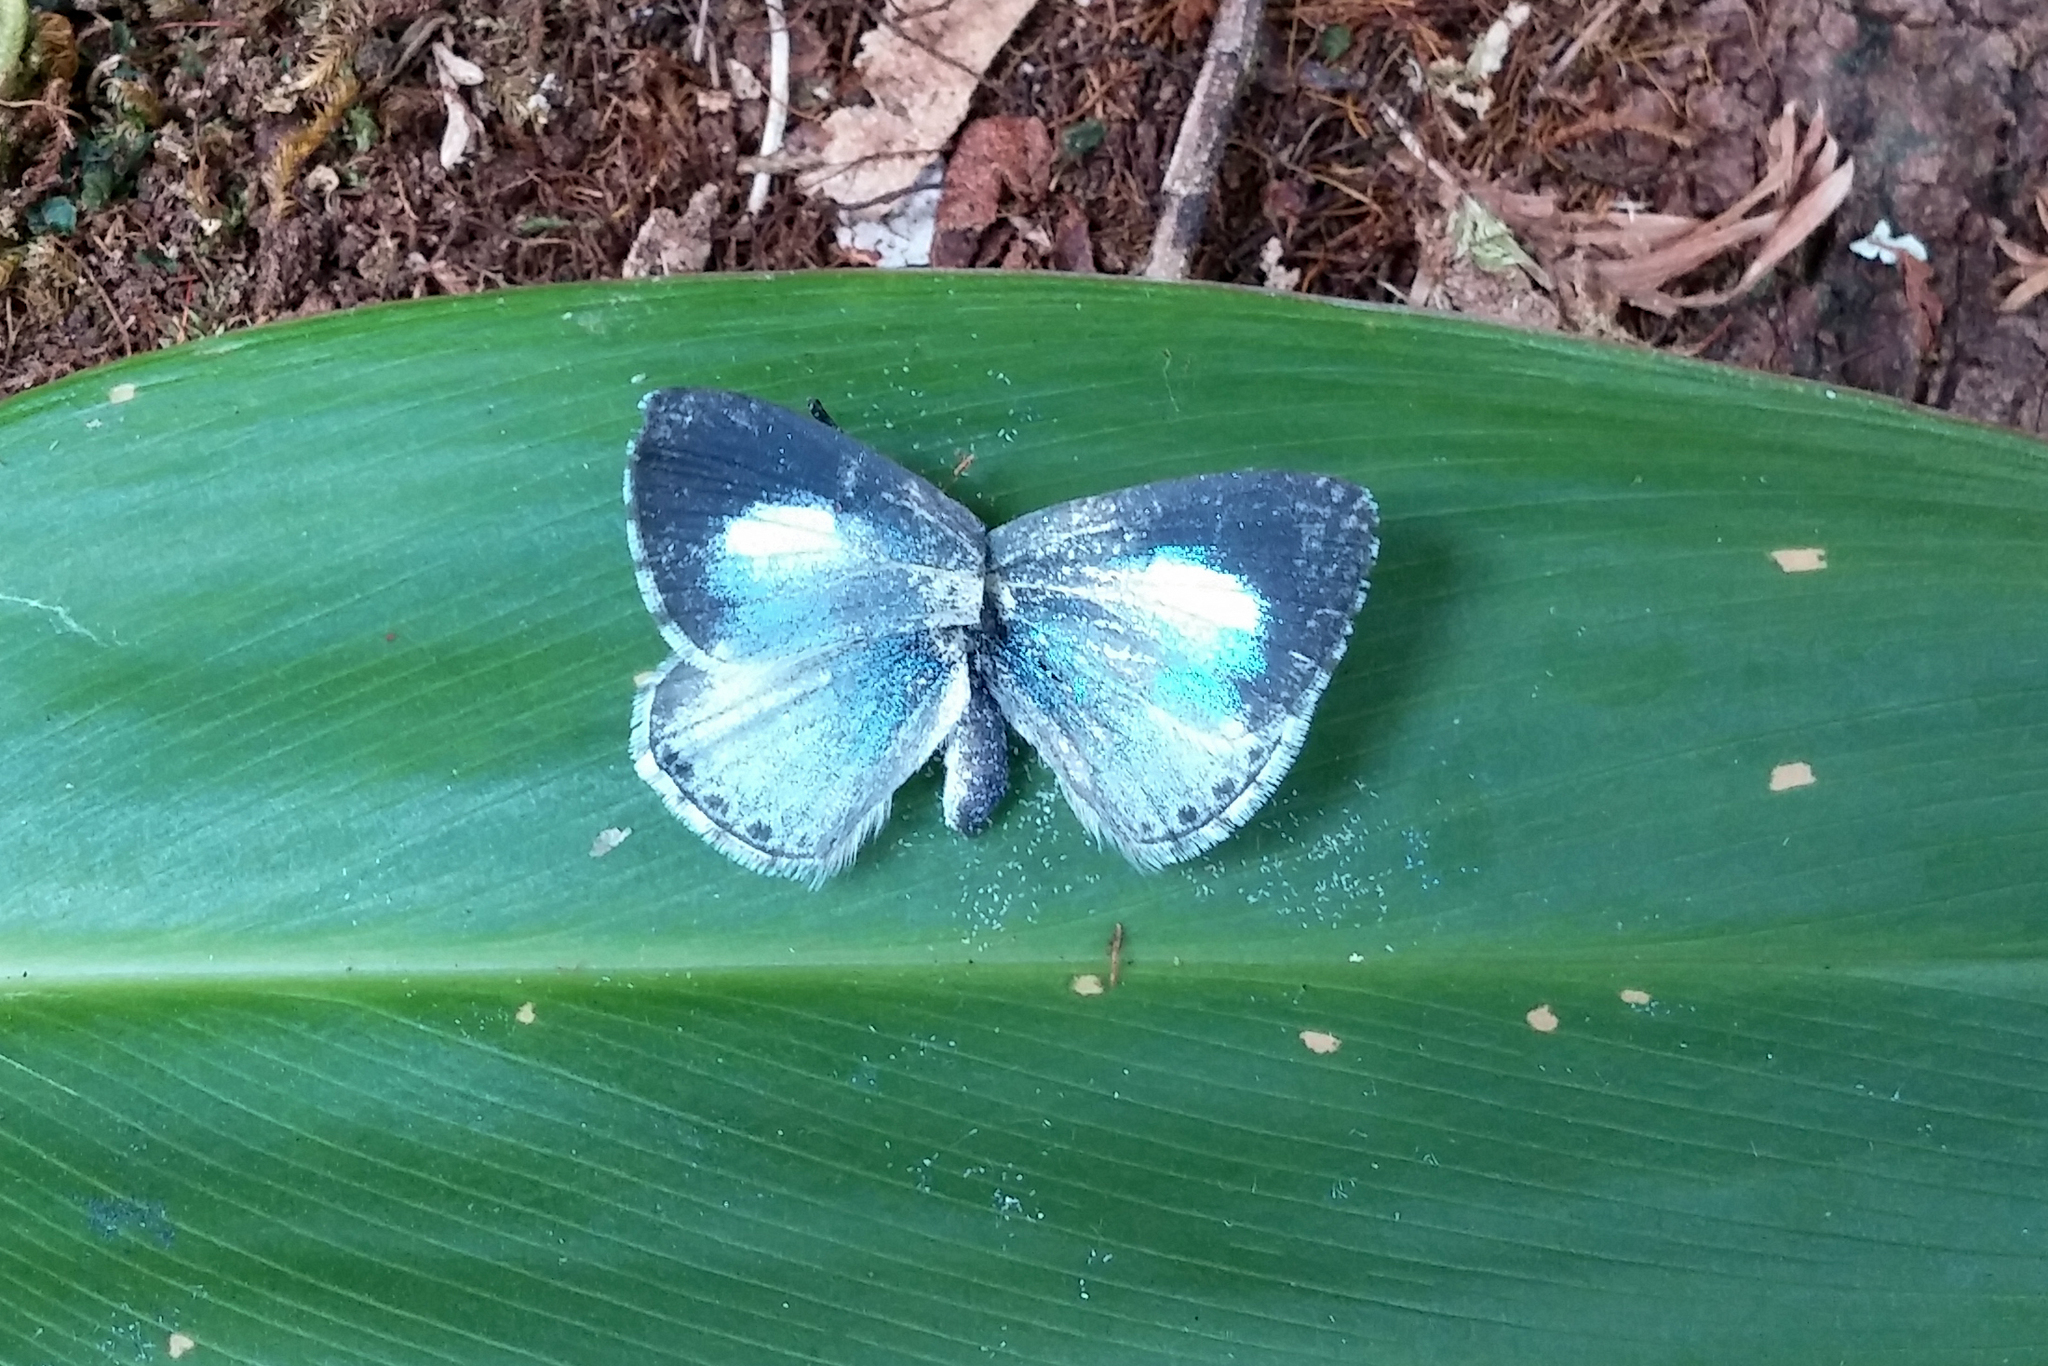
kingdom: Animalia
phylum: Arthropoda
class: Insecta
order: Lepidoptera
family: Lycaenidae
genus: Udara
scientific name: Udara dilectus
